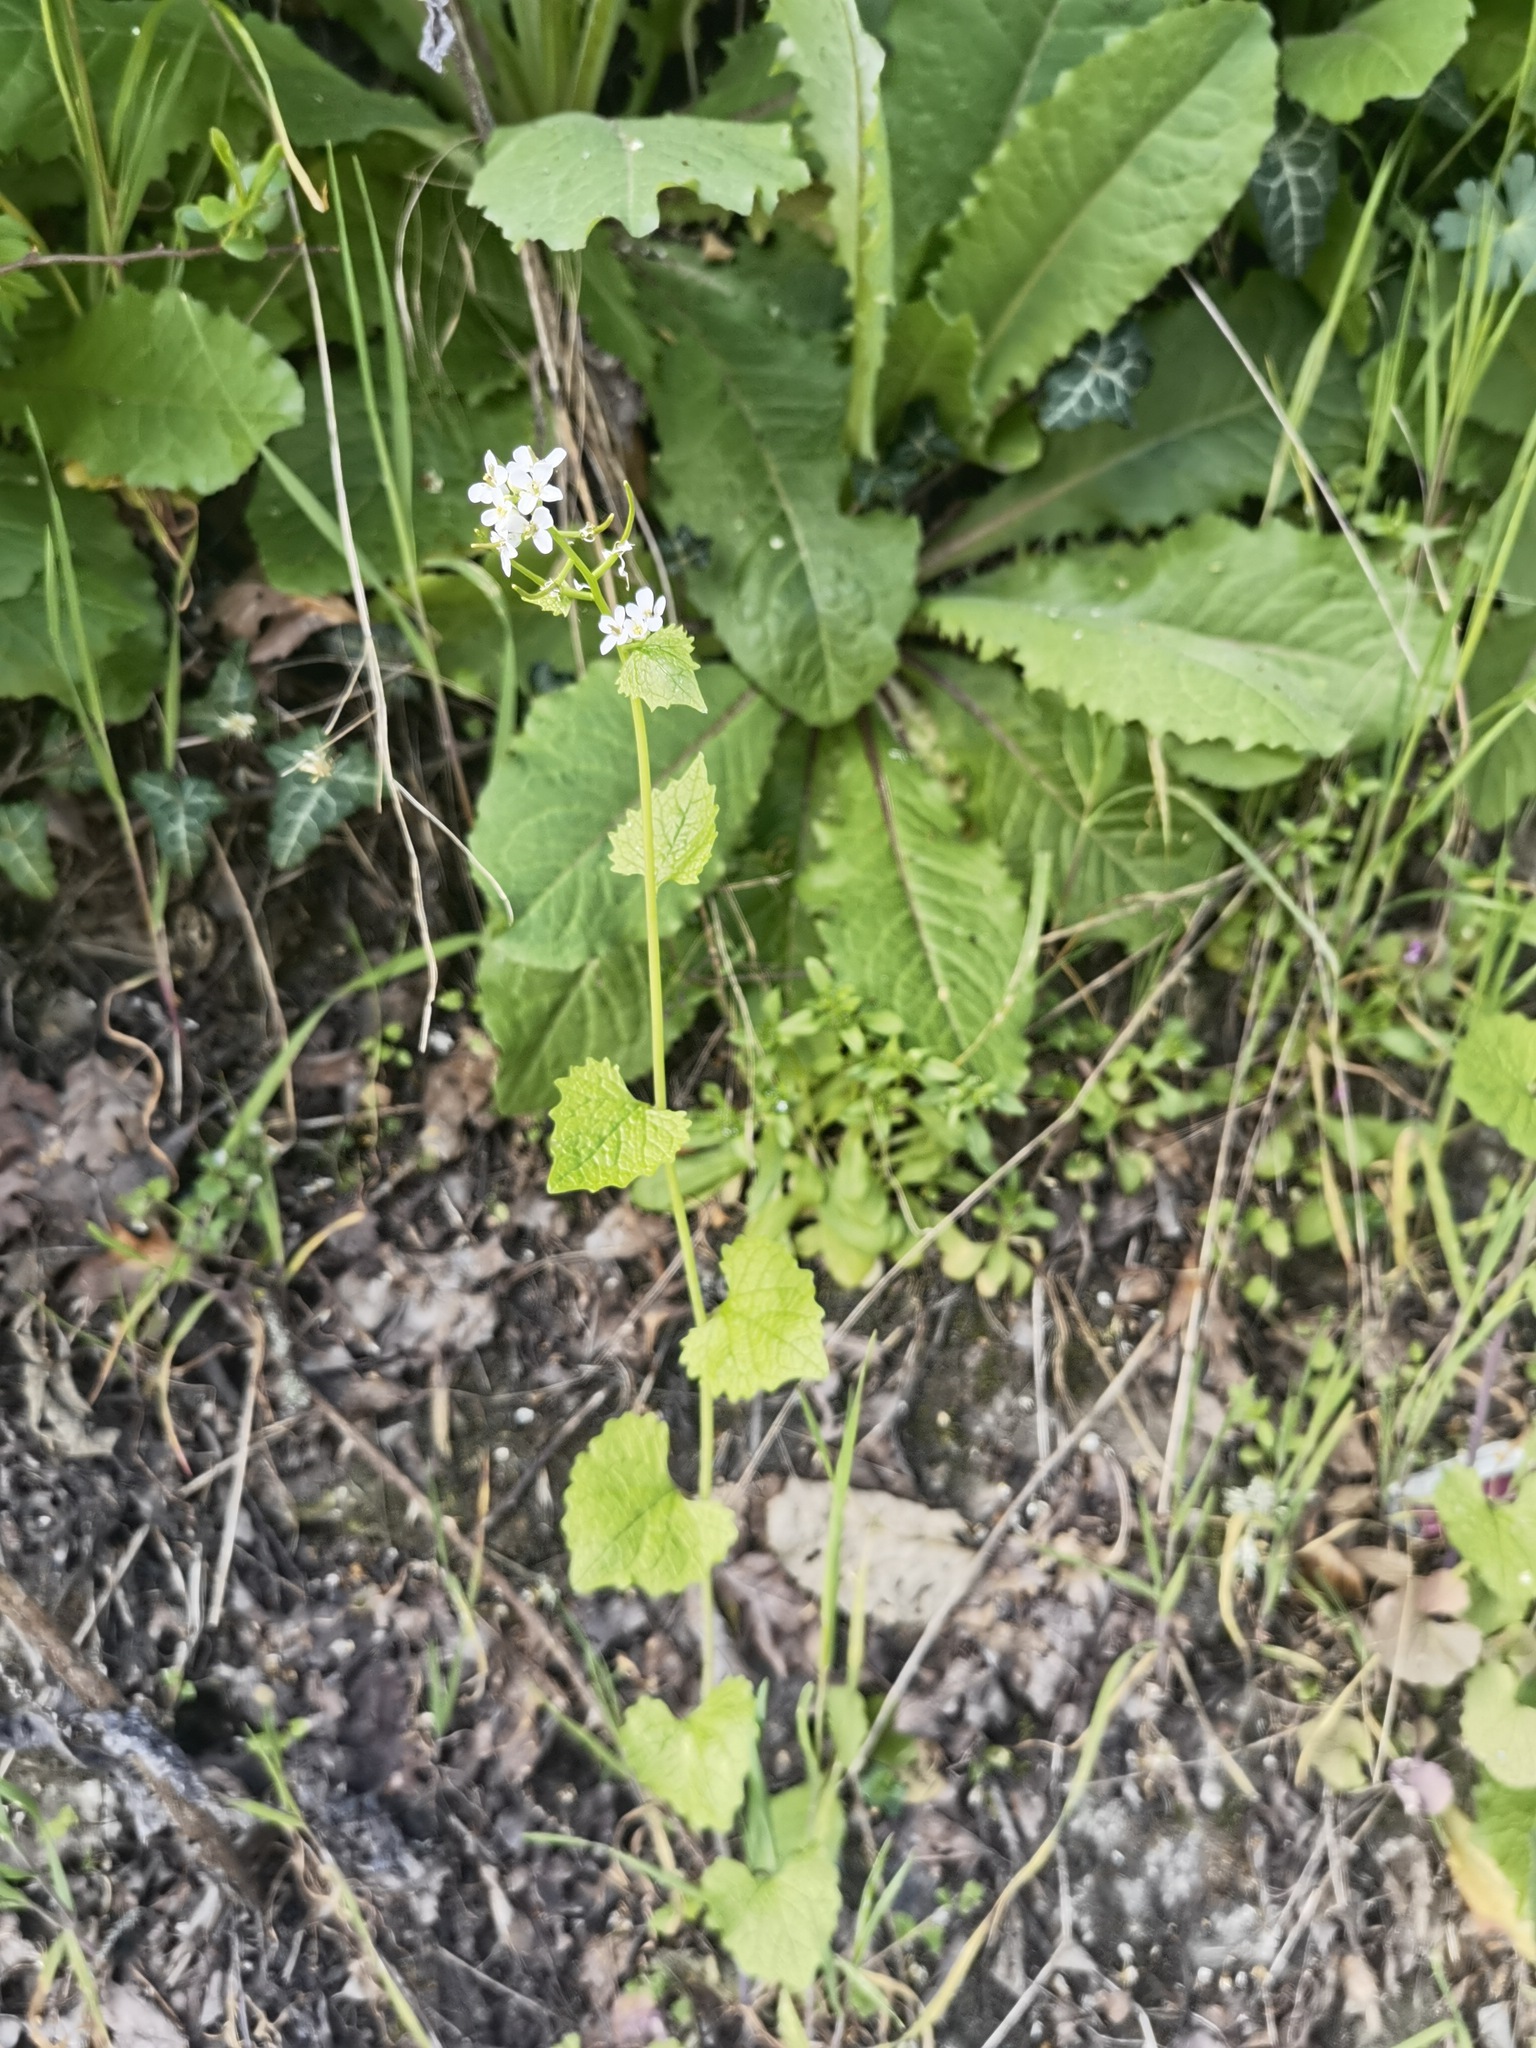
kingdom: Plantae
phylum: Tracheophyta
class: Magnoliopsida
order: Brassicales
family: Brassicaceae
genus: Alliaria
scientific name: Alliaria petiolata
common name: Garlic mustard
